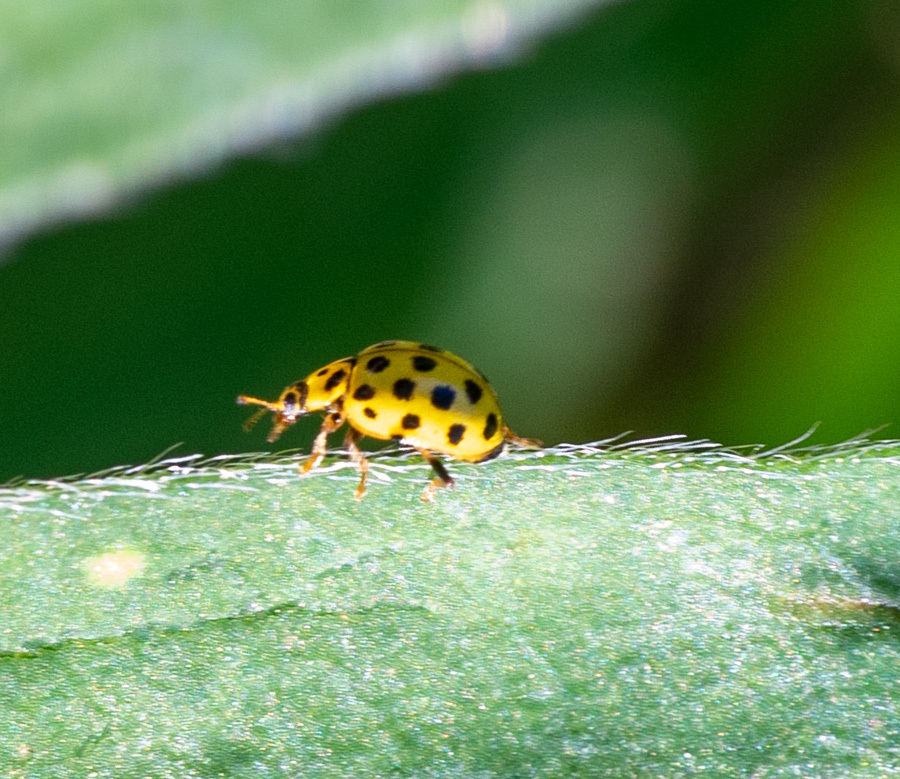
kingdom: Animalia
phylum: Arthropoda
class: Insecta
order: Coleoptera
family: Coccinellidae
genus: Psyllobora
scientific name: Psyllobora vigintiduopunctata
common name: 22-spot ladybird
